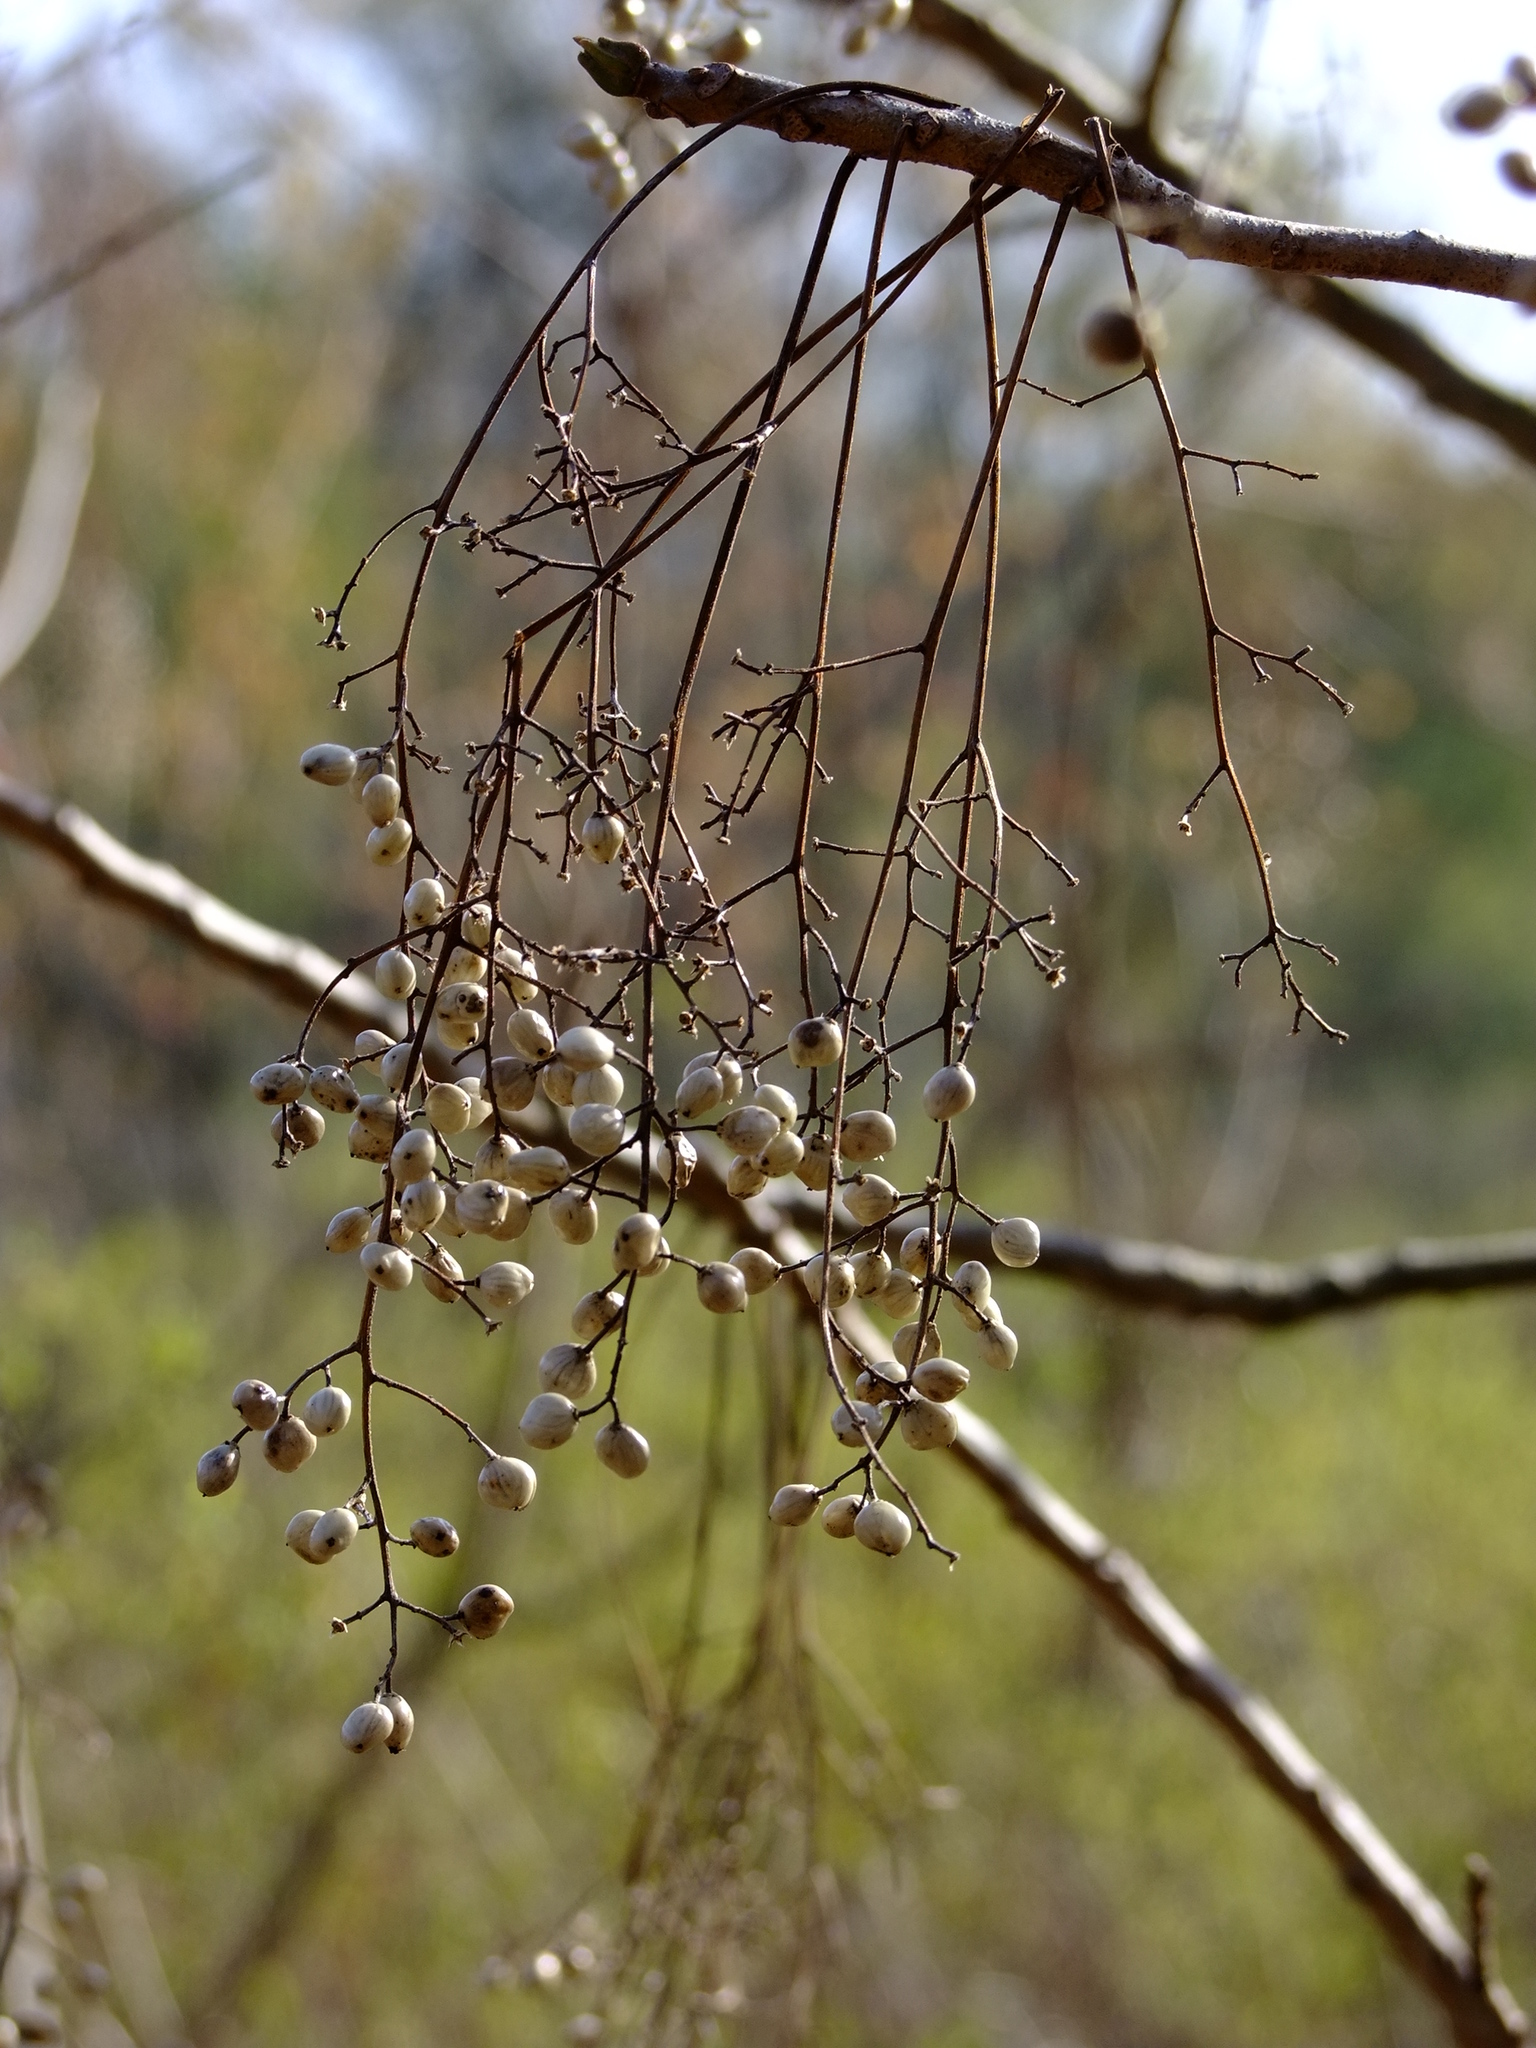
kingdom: Plantae
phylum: Tracheophyta
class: Magnoliopsida
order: Sapindales
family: Anacardiaceae
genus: Toxicodendron
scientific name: Toxicodendron vernix
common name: Poison sumac
